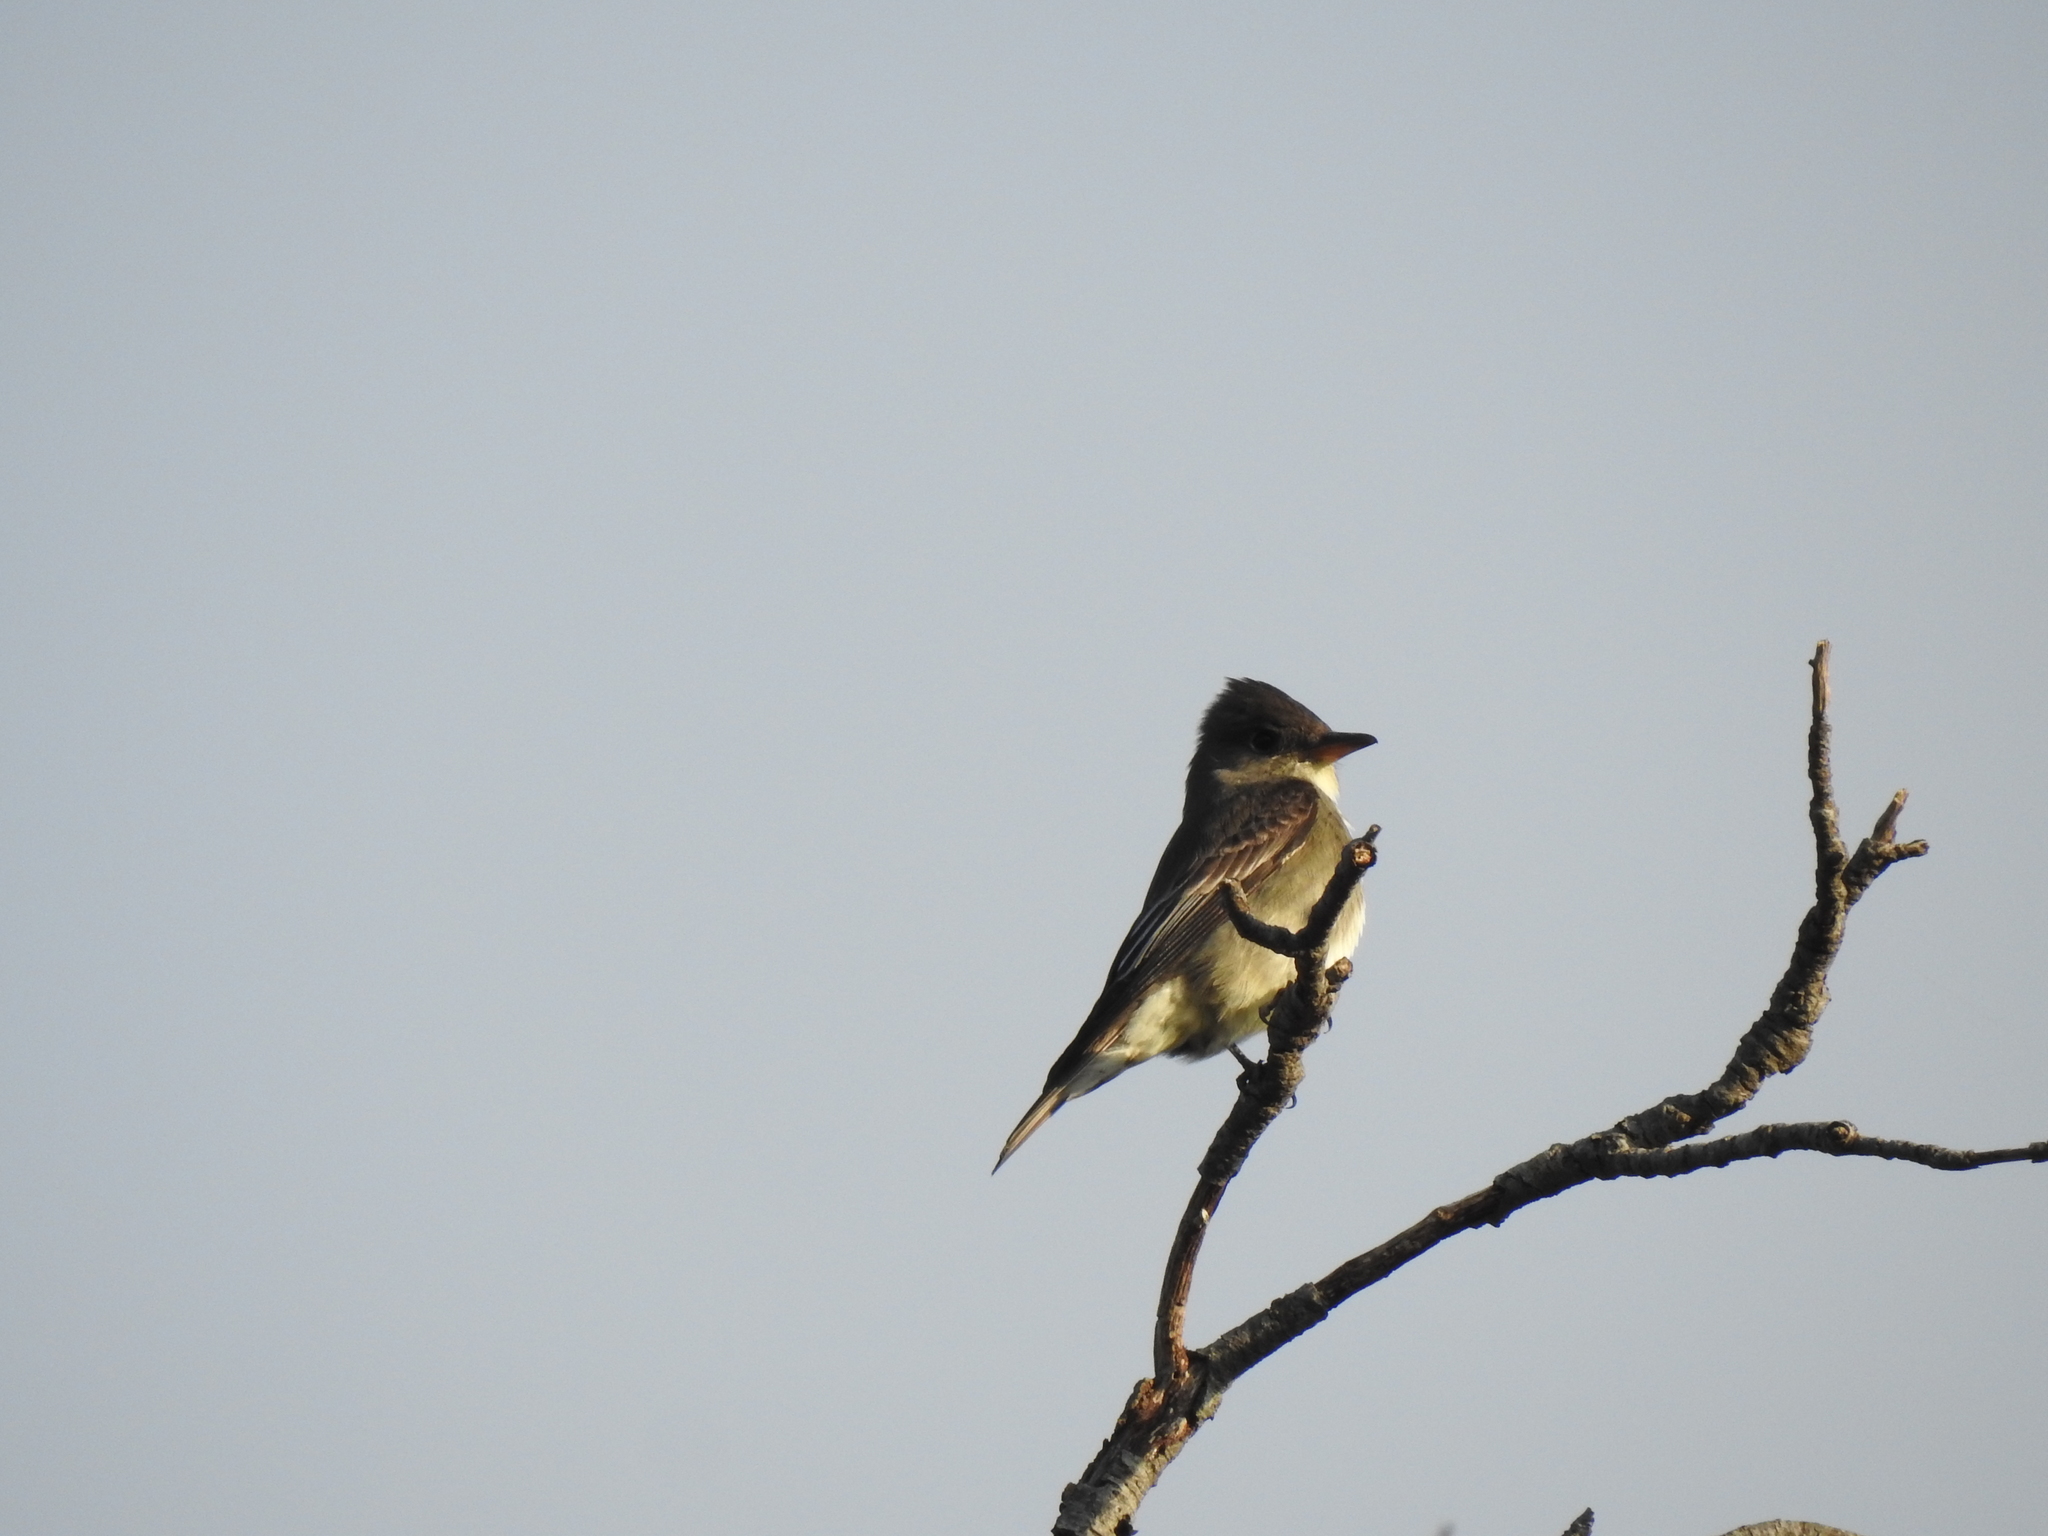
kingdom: Animalia
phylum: Chordata
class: Aves
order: Passeriformes
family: Tyrannidae
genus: Contopus
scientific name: Contopus cooperi
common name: Olive-sided flycatcher
